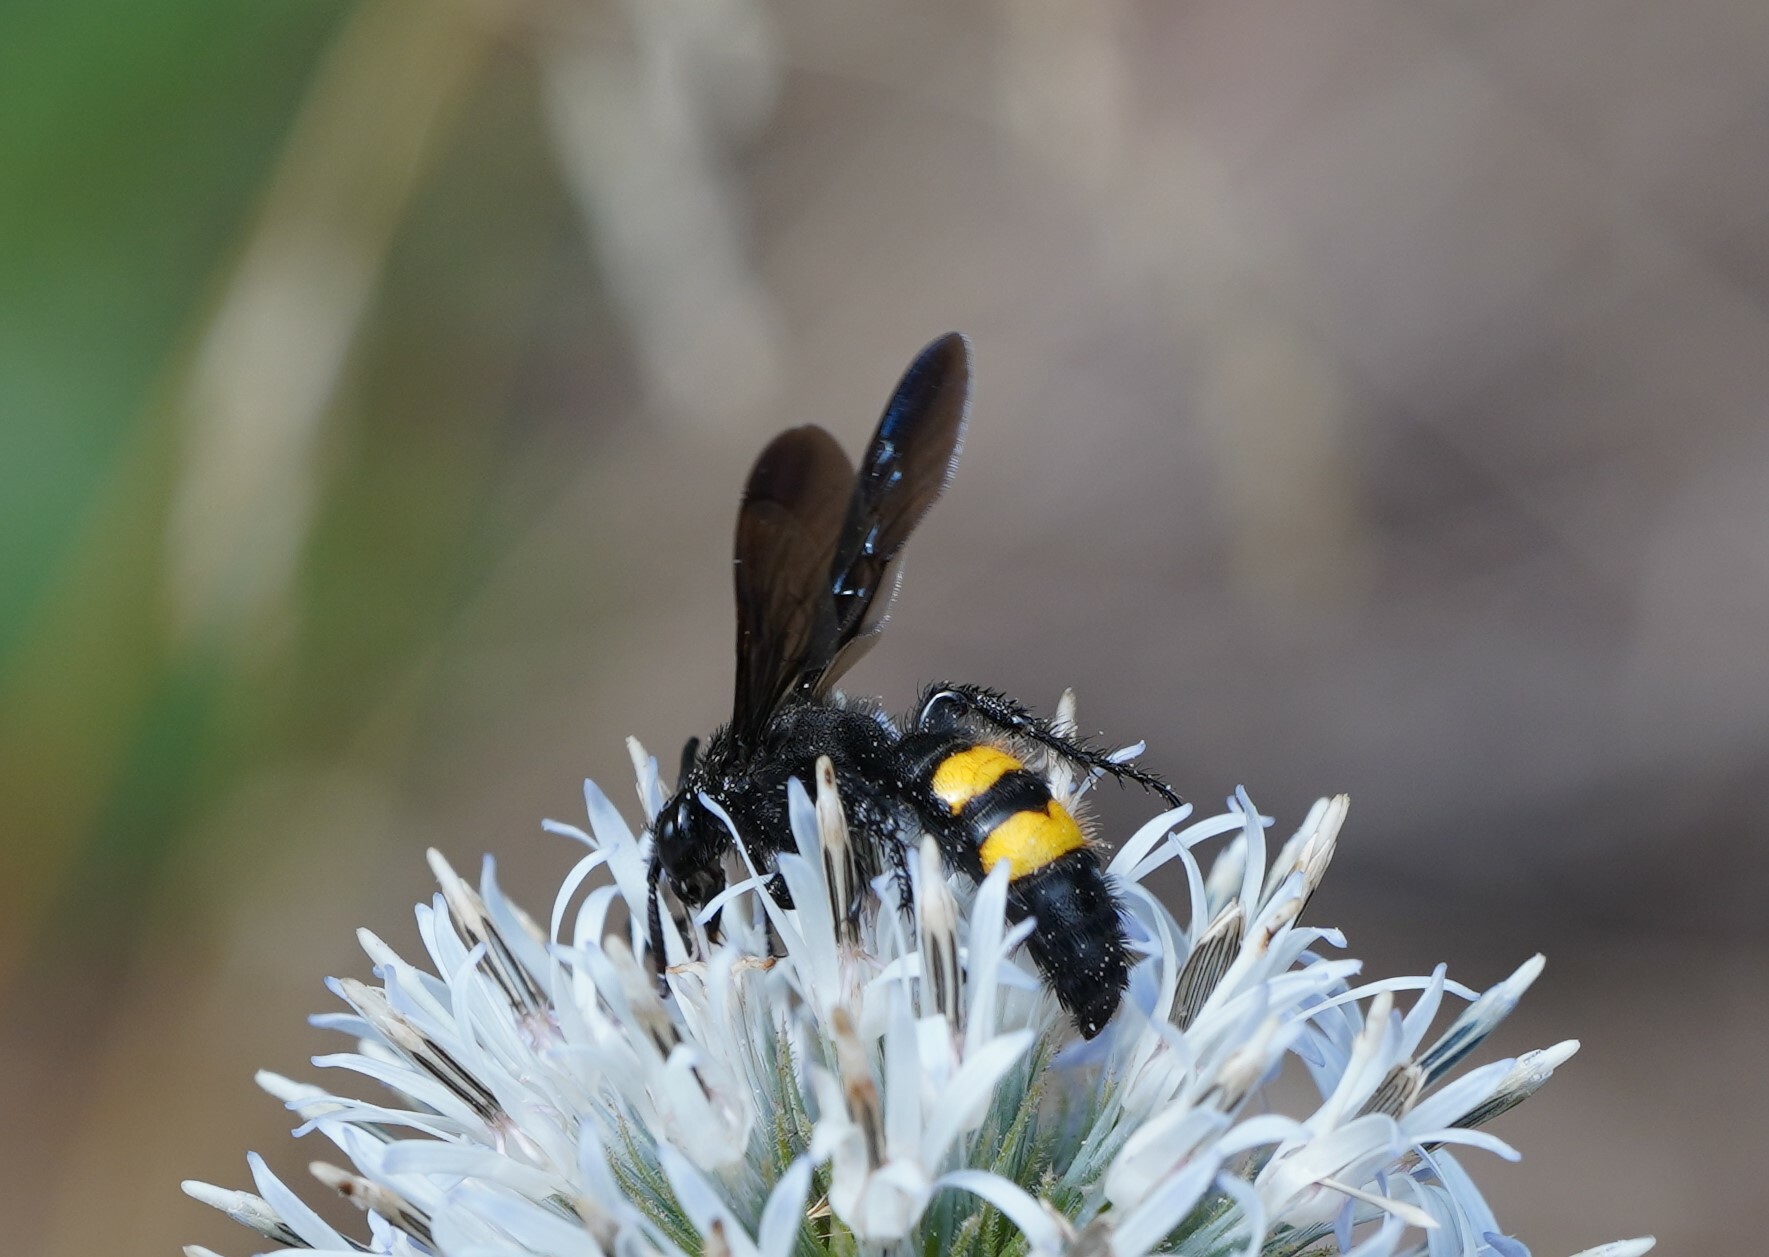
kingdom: Animalia
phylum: Arthropoda
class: Insecta
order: Hymenoptera
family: Scoliidae
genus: Scolia
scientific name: Scolia hirta
